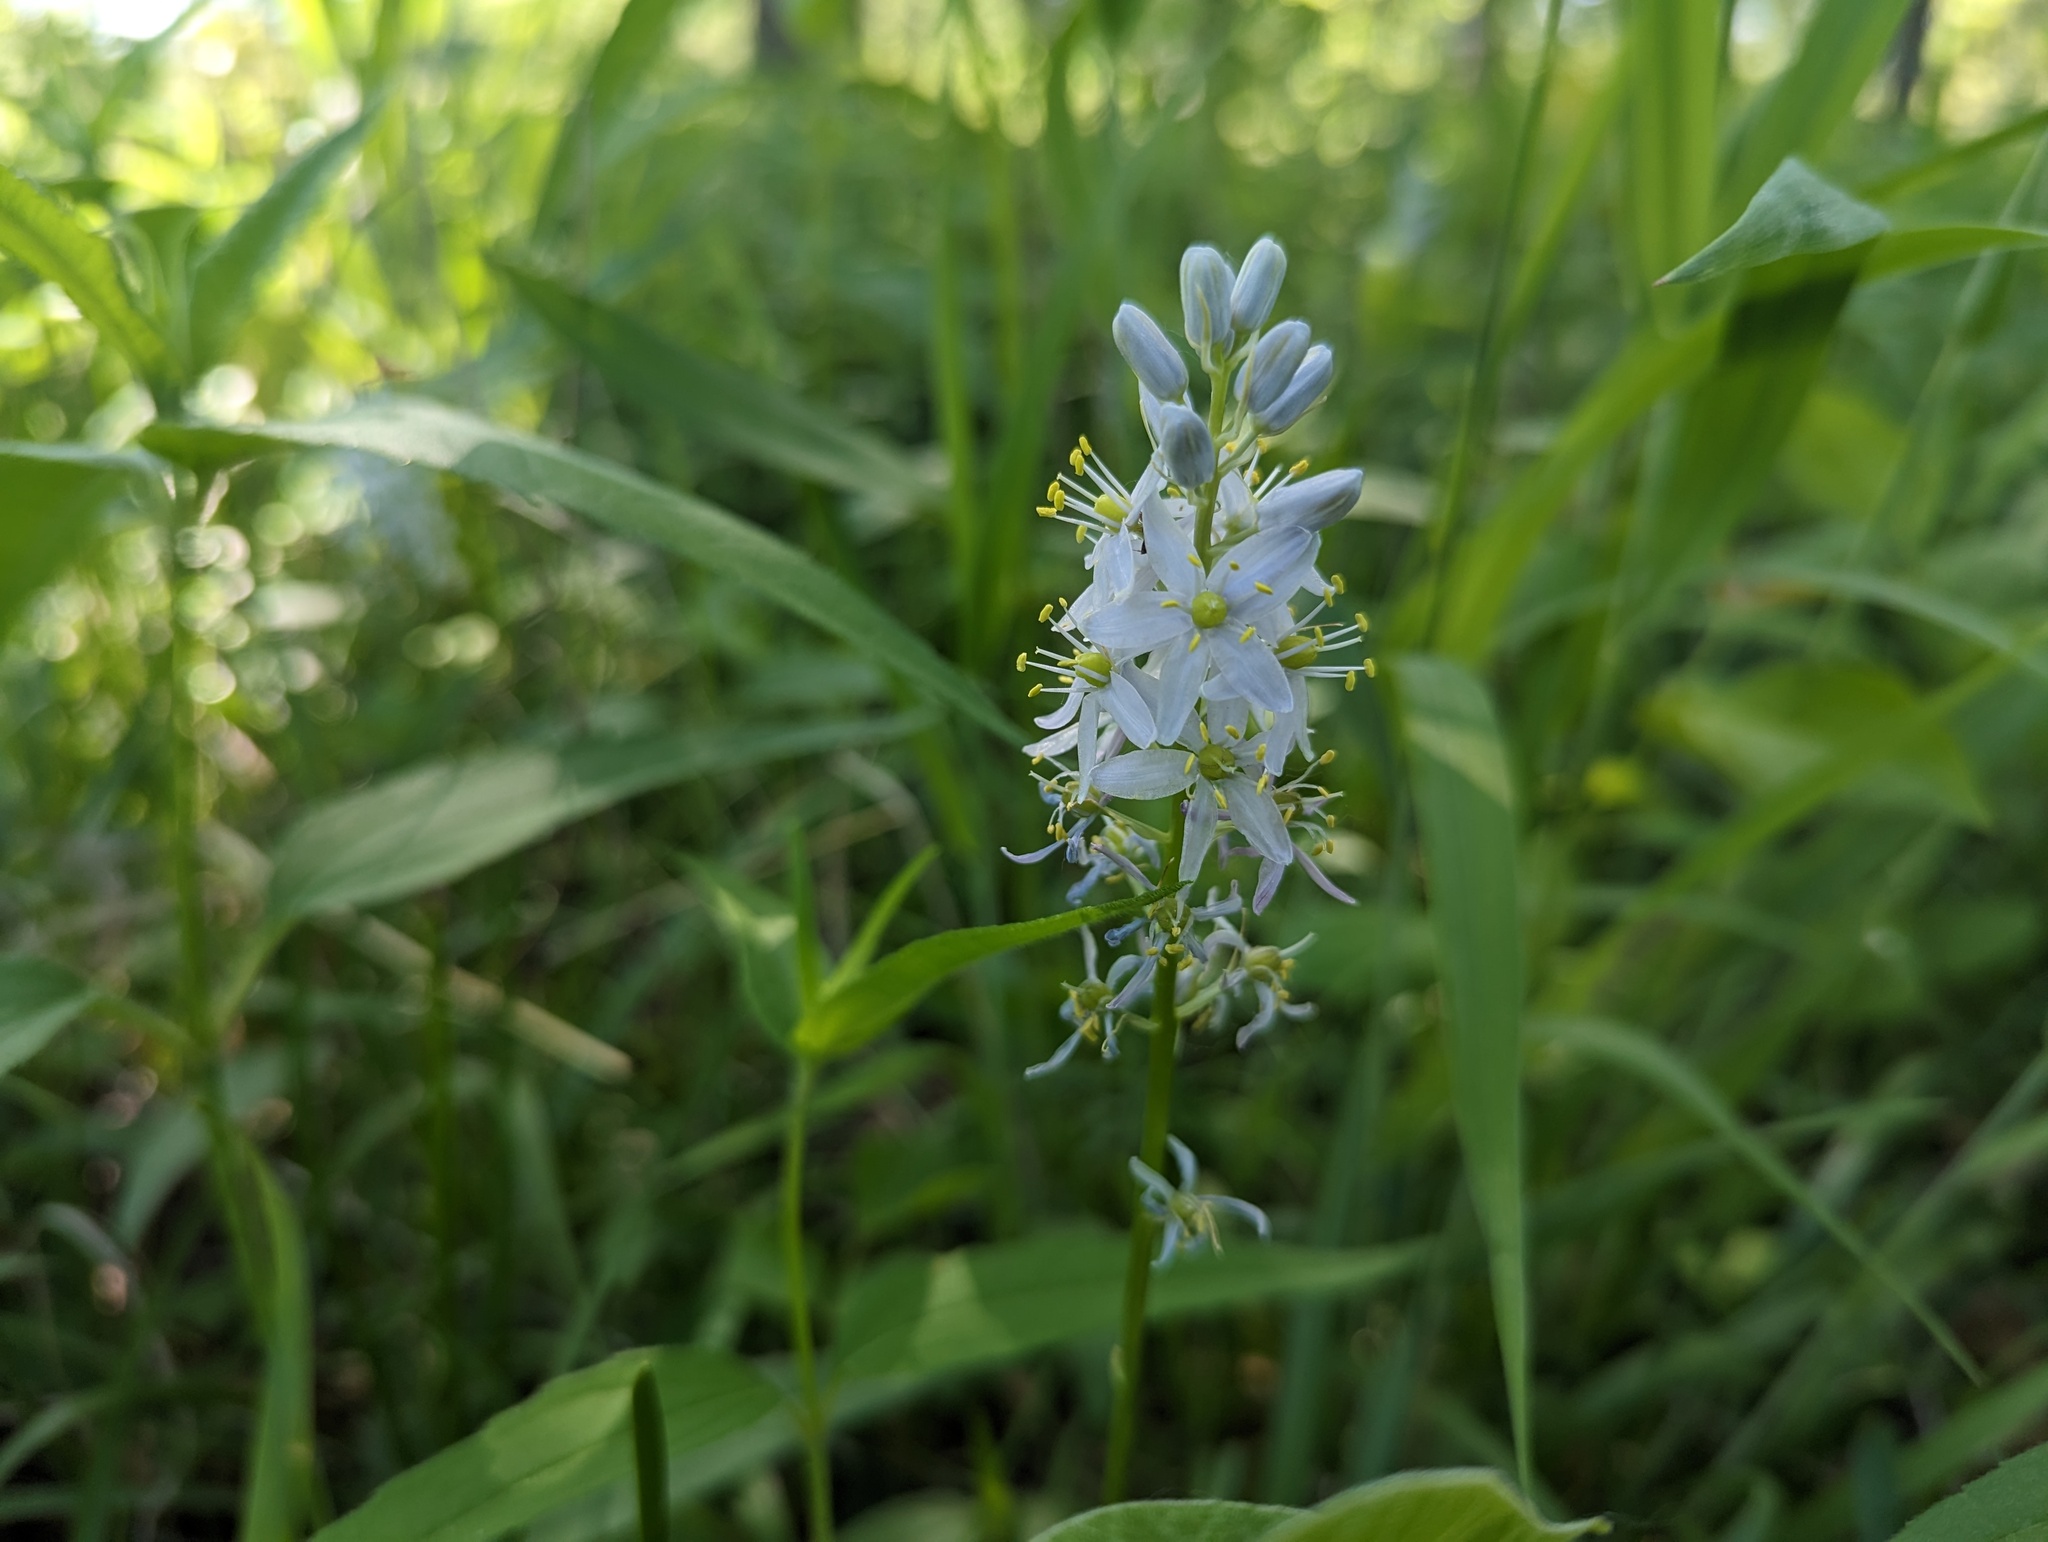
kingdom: Plantae
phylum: Tracheophyta
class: Liliopsida
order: Asparagales
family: Asparagaceae
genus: Camassia
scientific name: Camassia scilloides
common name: Wild hyacinth
